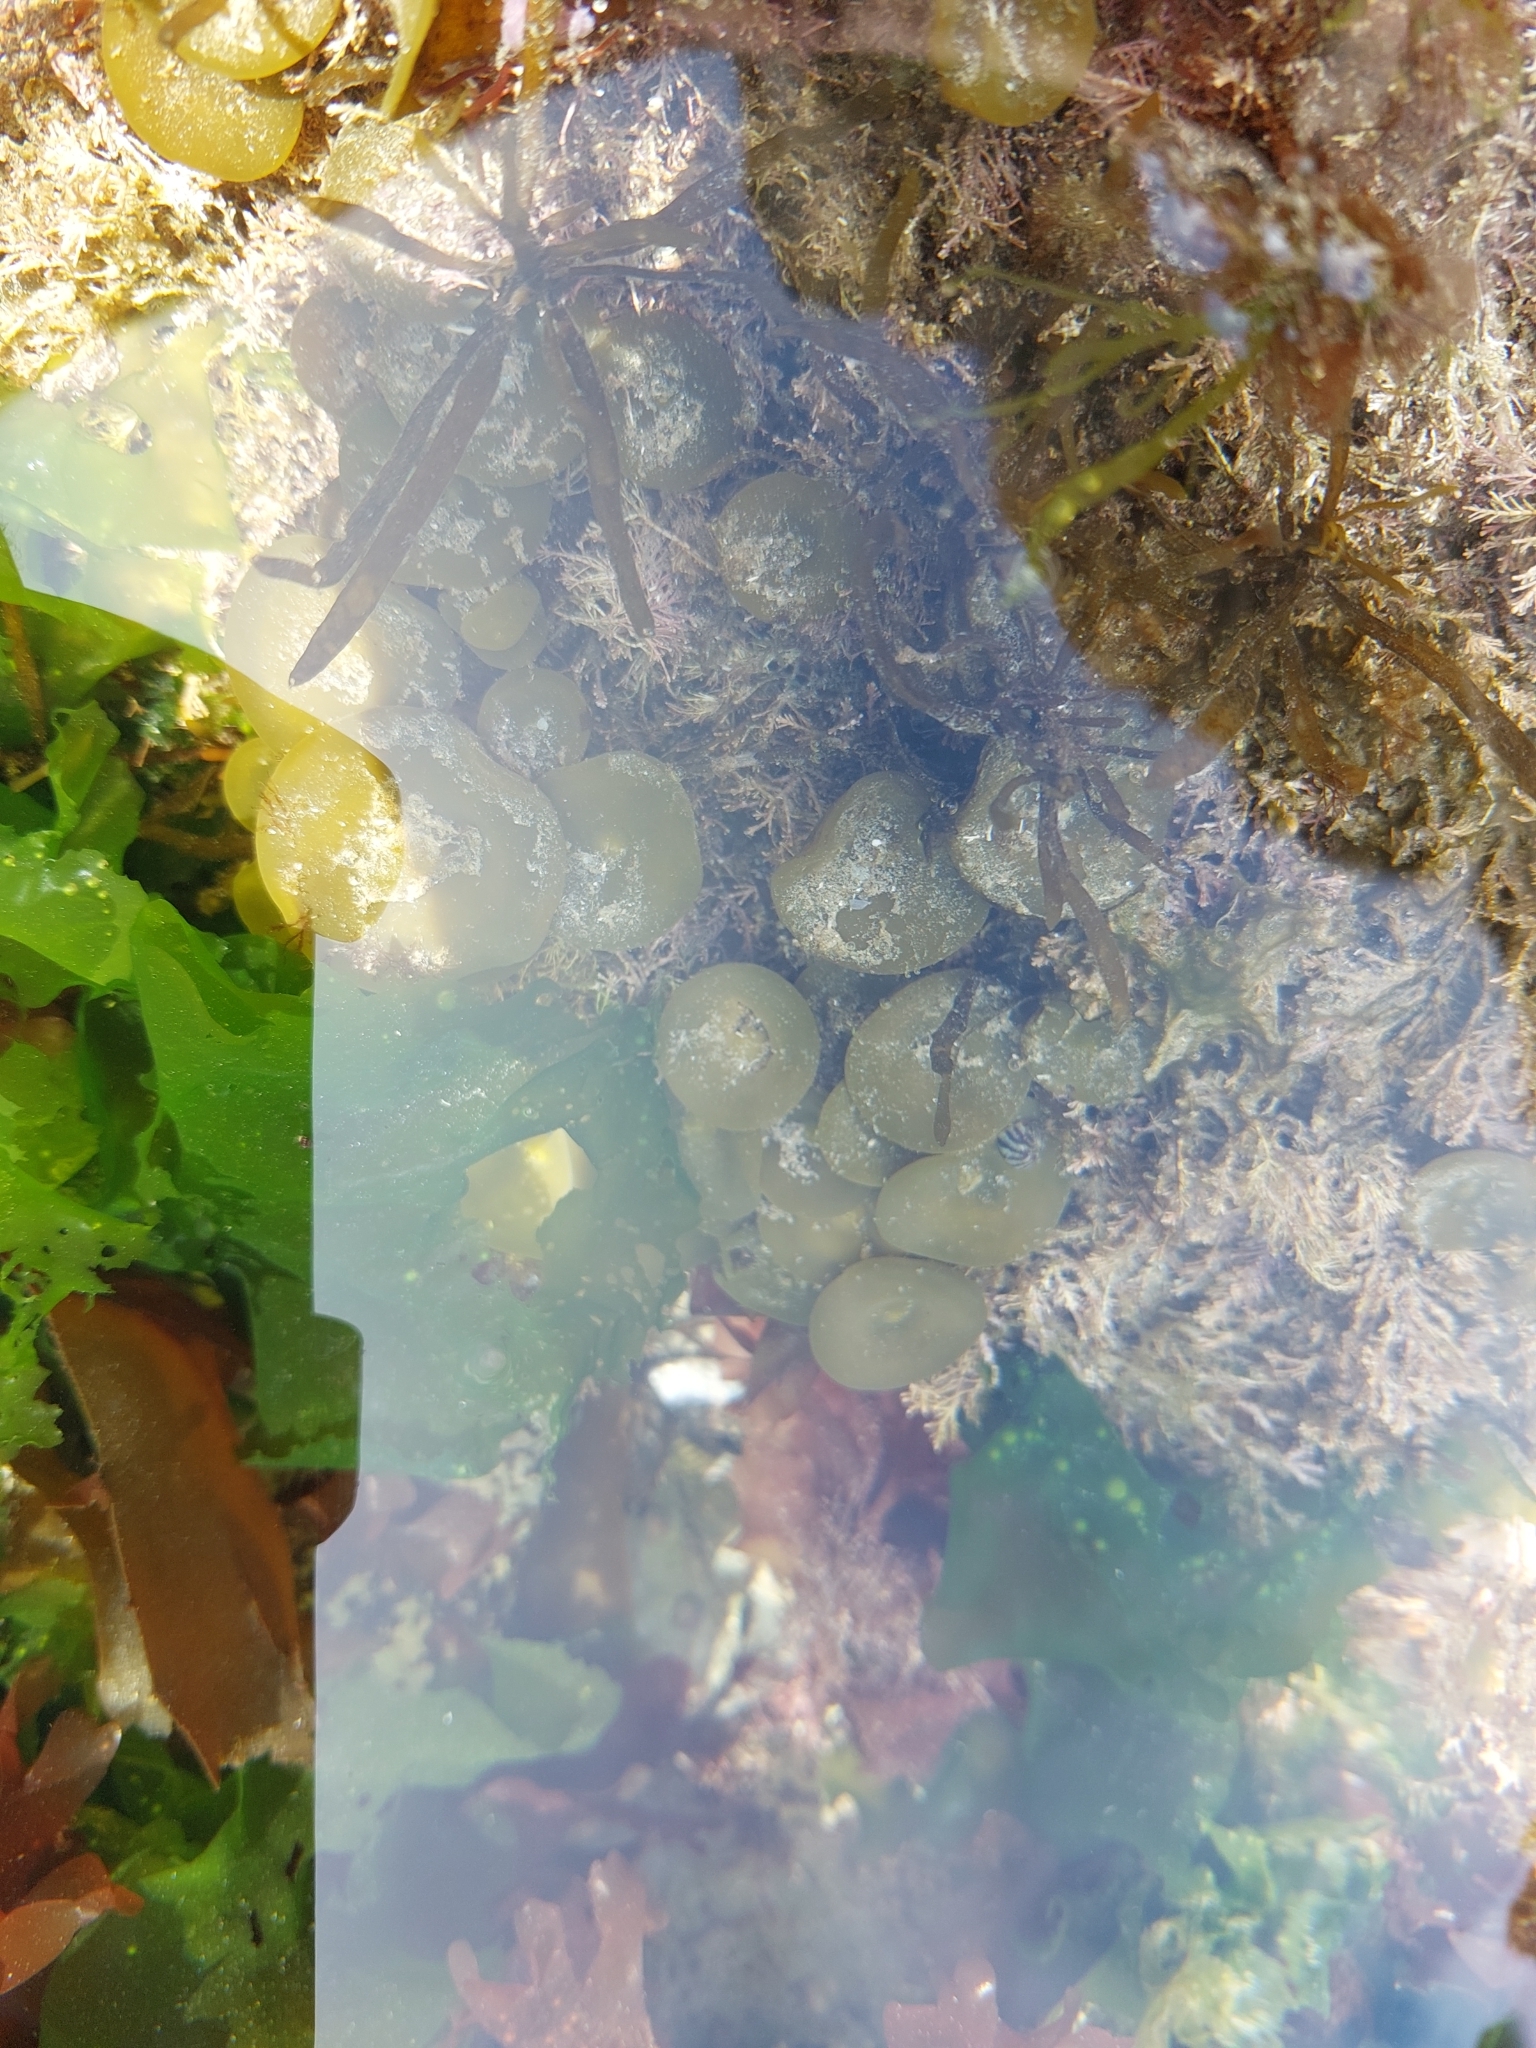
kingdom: Chromista
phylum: Ochrophyta
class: Phaeophyceae
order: Fucales
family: Himanthaliaceae
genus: Himanthalia
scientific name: Himanthalia elongata
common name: Sea-thong
